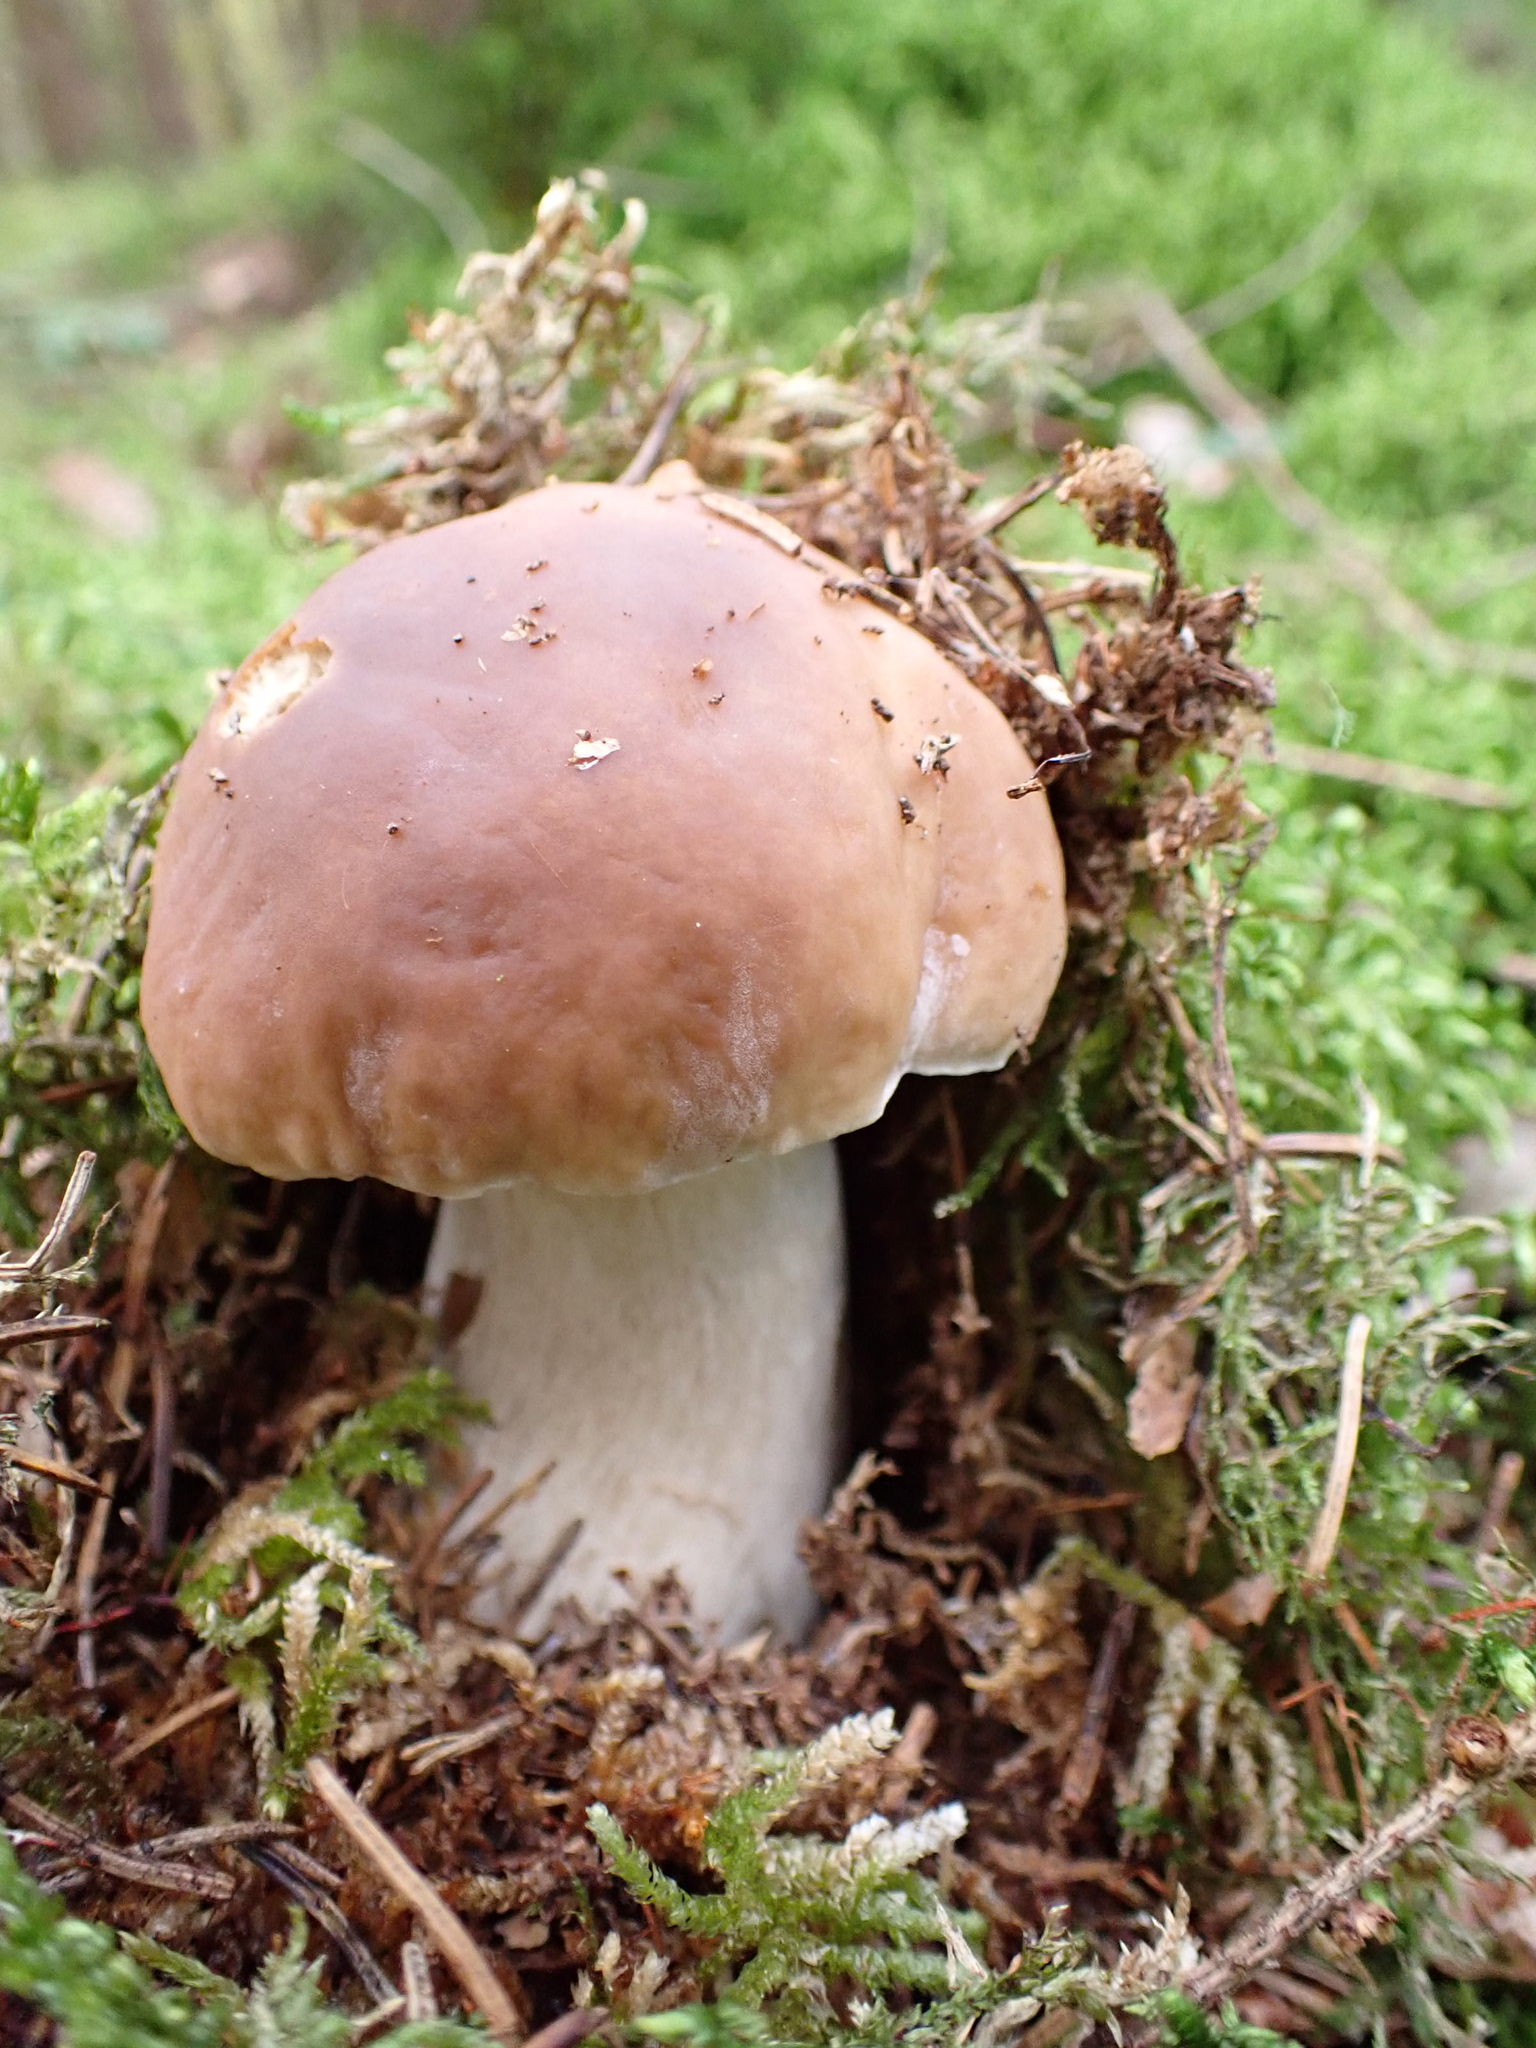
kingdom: Fungi
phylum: Basidiomycota
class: Agaricomycetes
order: Boletales
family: Boletaceae
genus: Boletus
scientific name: Boletus edulis
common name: Cep
